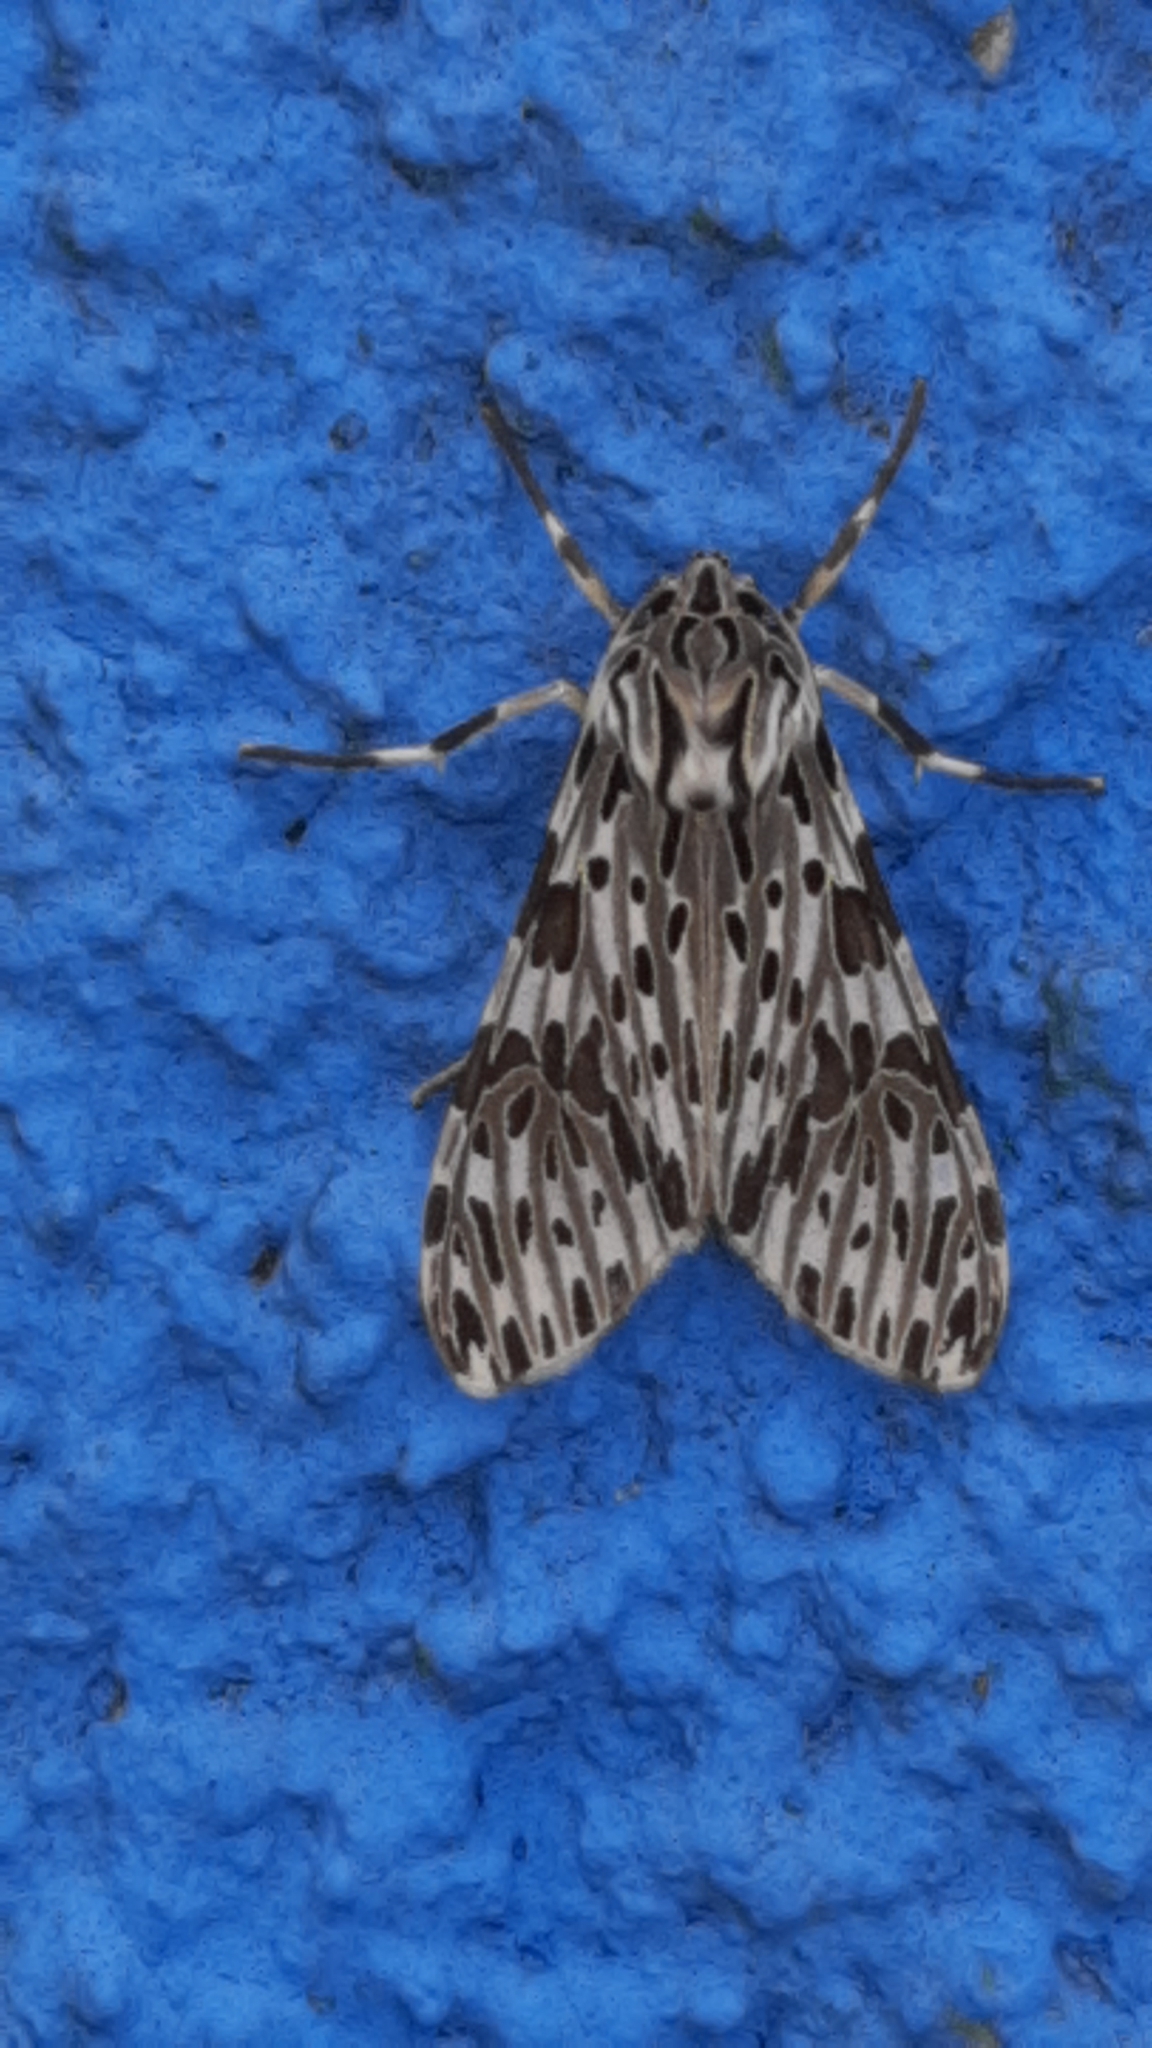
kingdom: Animalia
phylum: Arthropoda
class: Insecta
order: Lepidoptera
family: Erebidae
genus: Eucereon
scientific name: Eucereon
